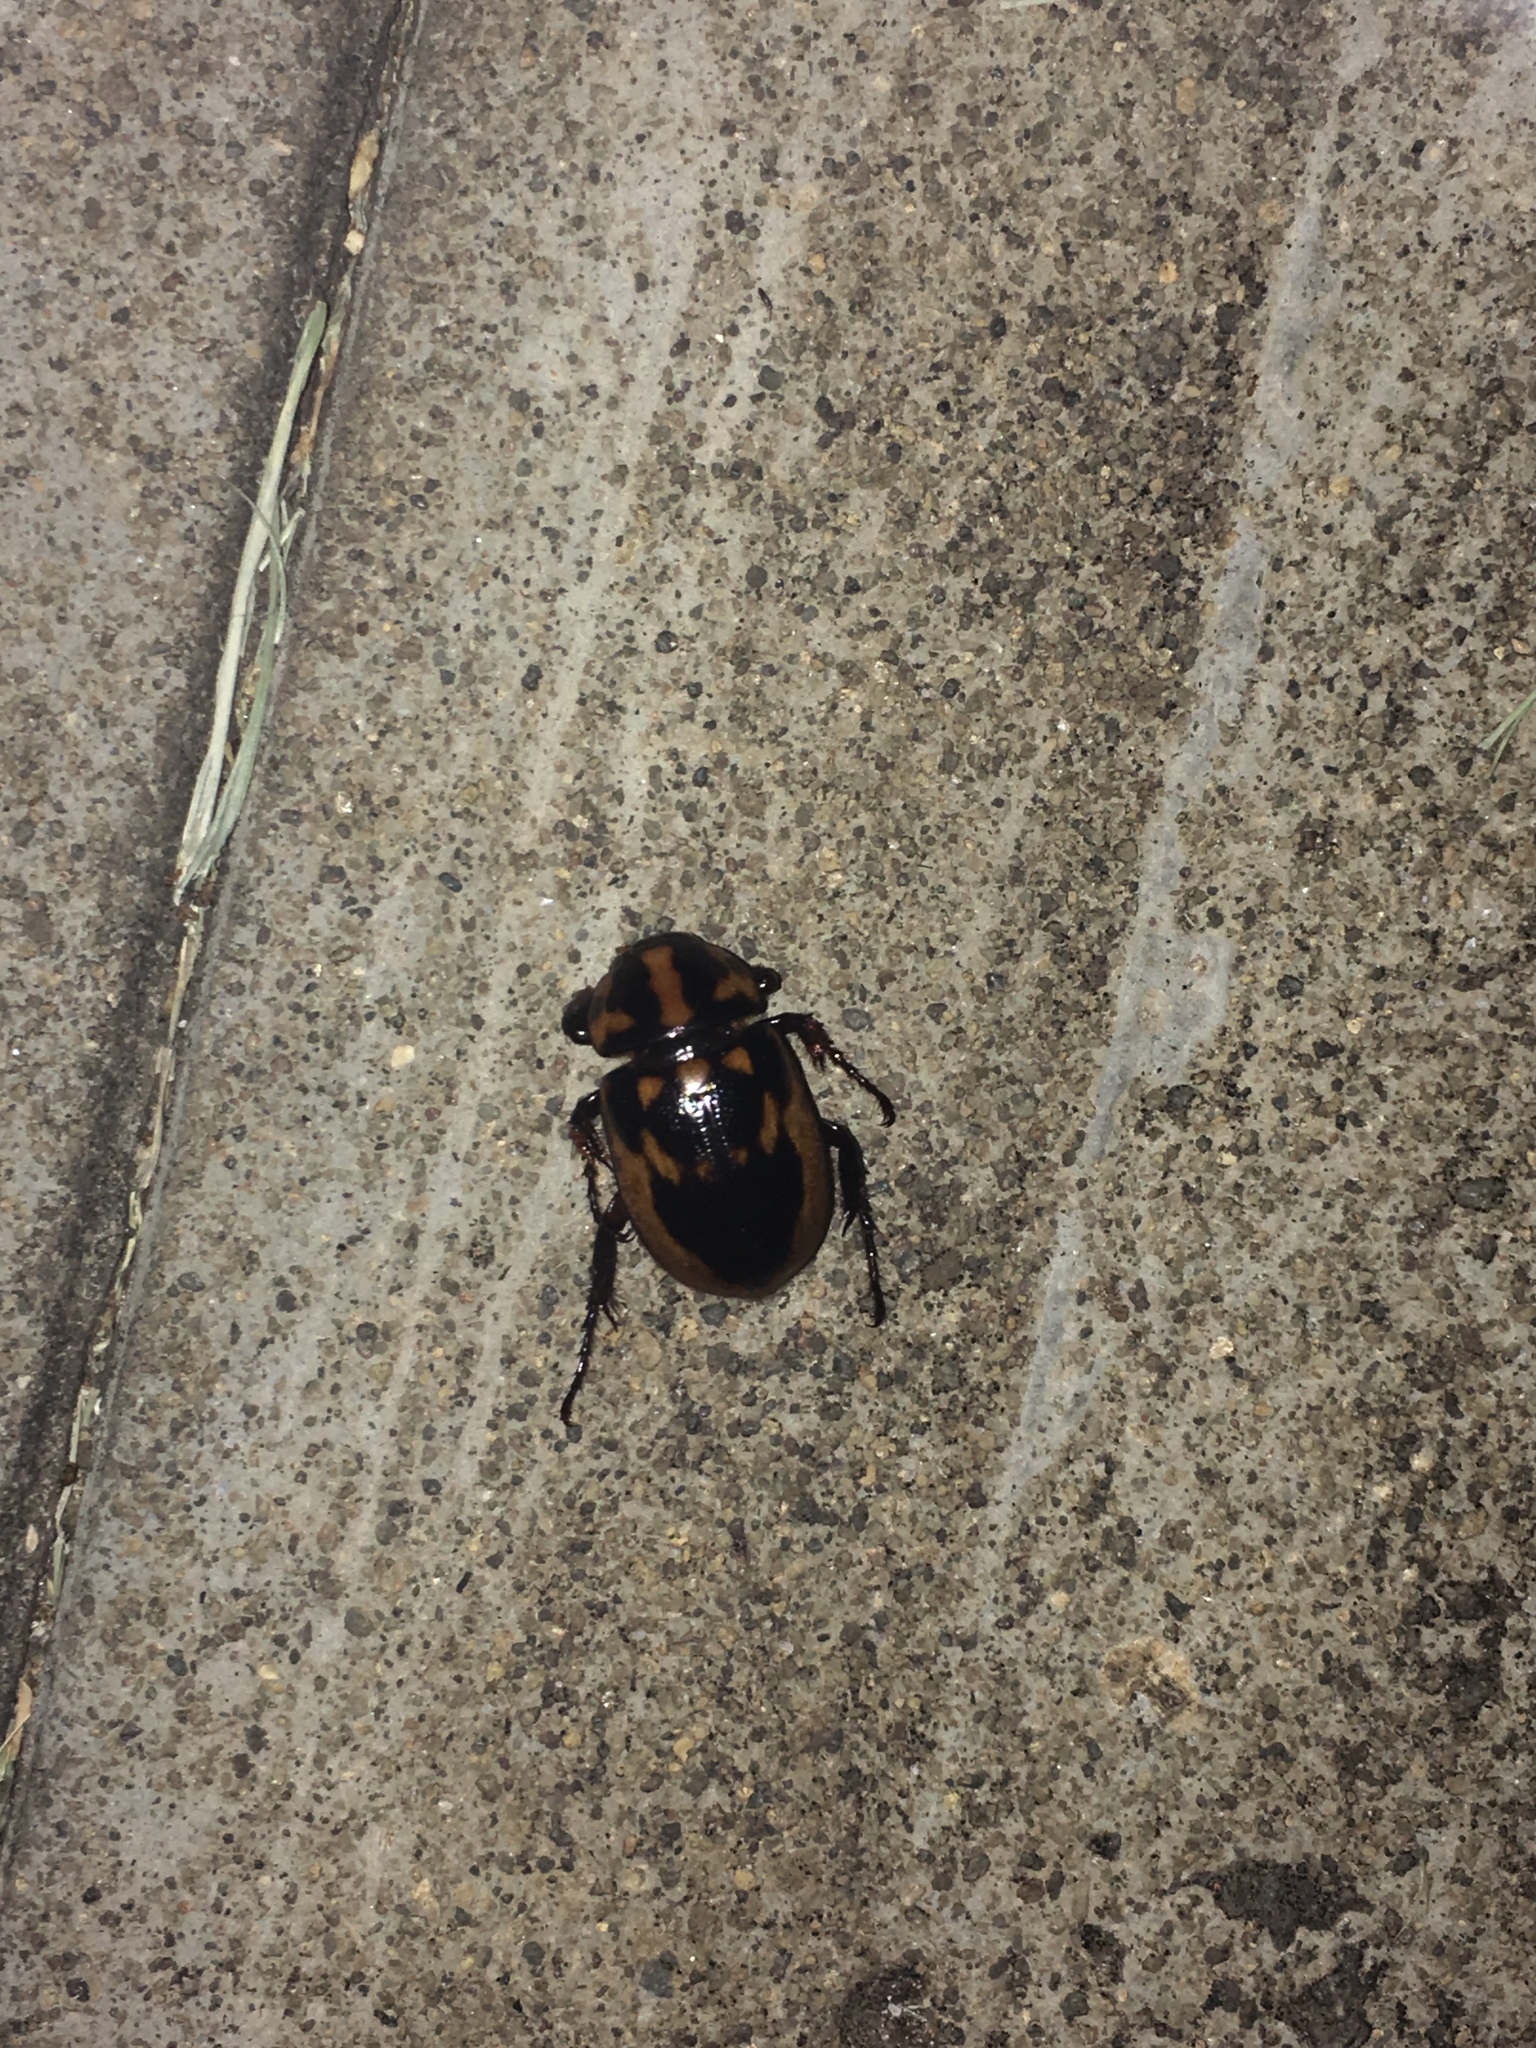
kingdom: Animalia
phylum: Arthropoda
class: Insecta
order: Coleoptera
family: Scarabaeidae
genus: Cyclocephala
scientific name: Cyclocephala deceptor
